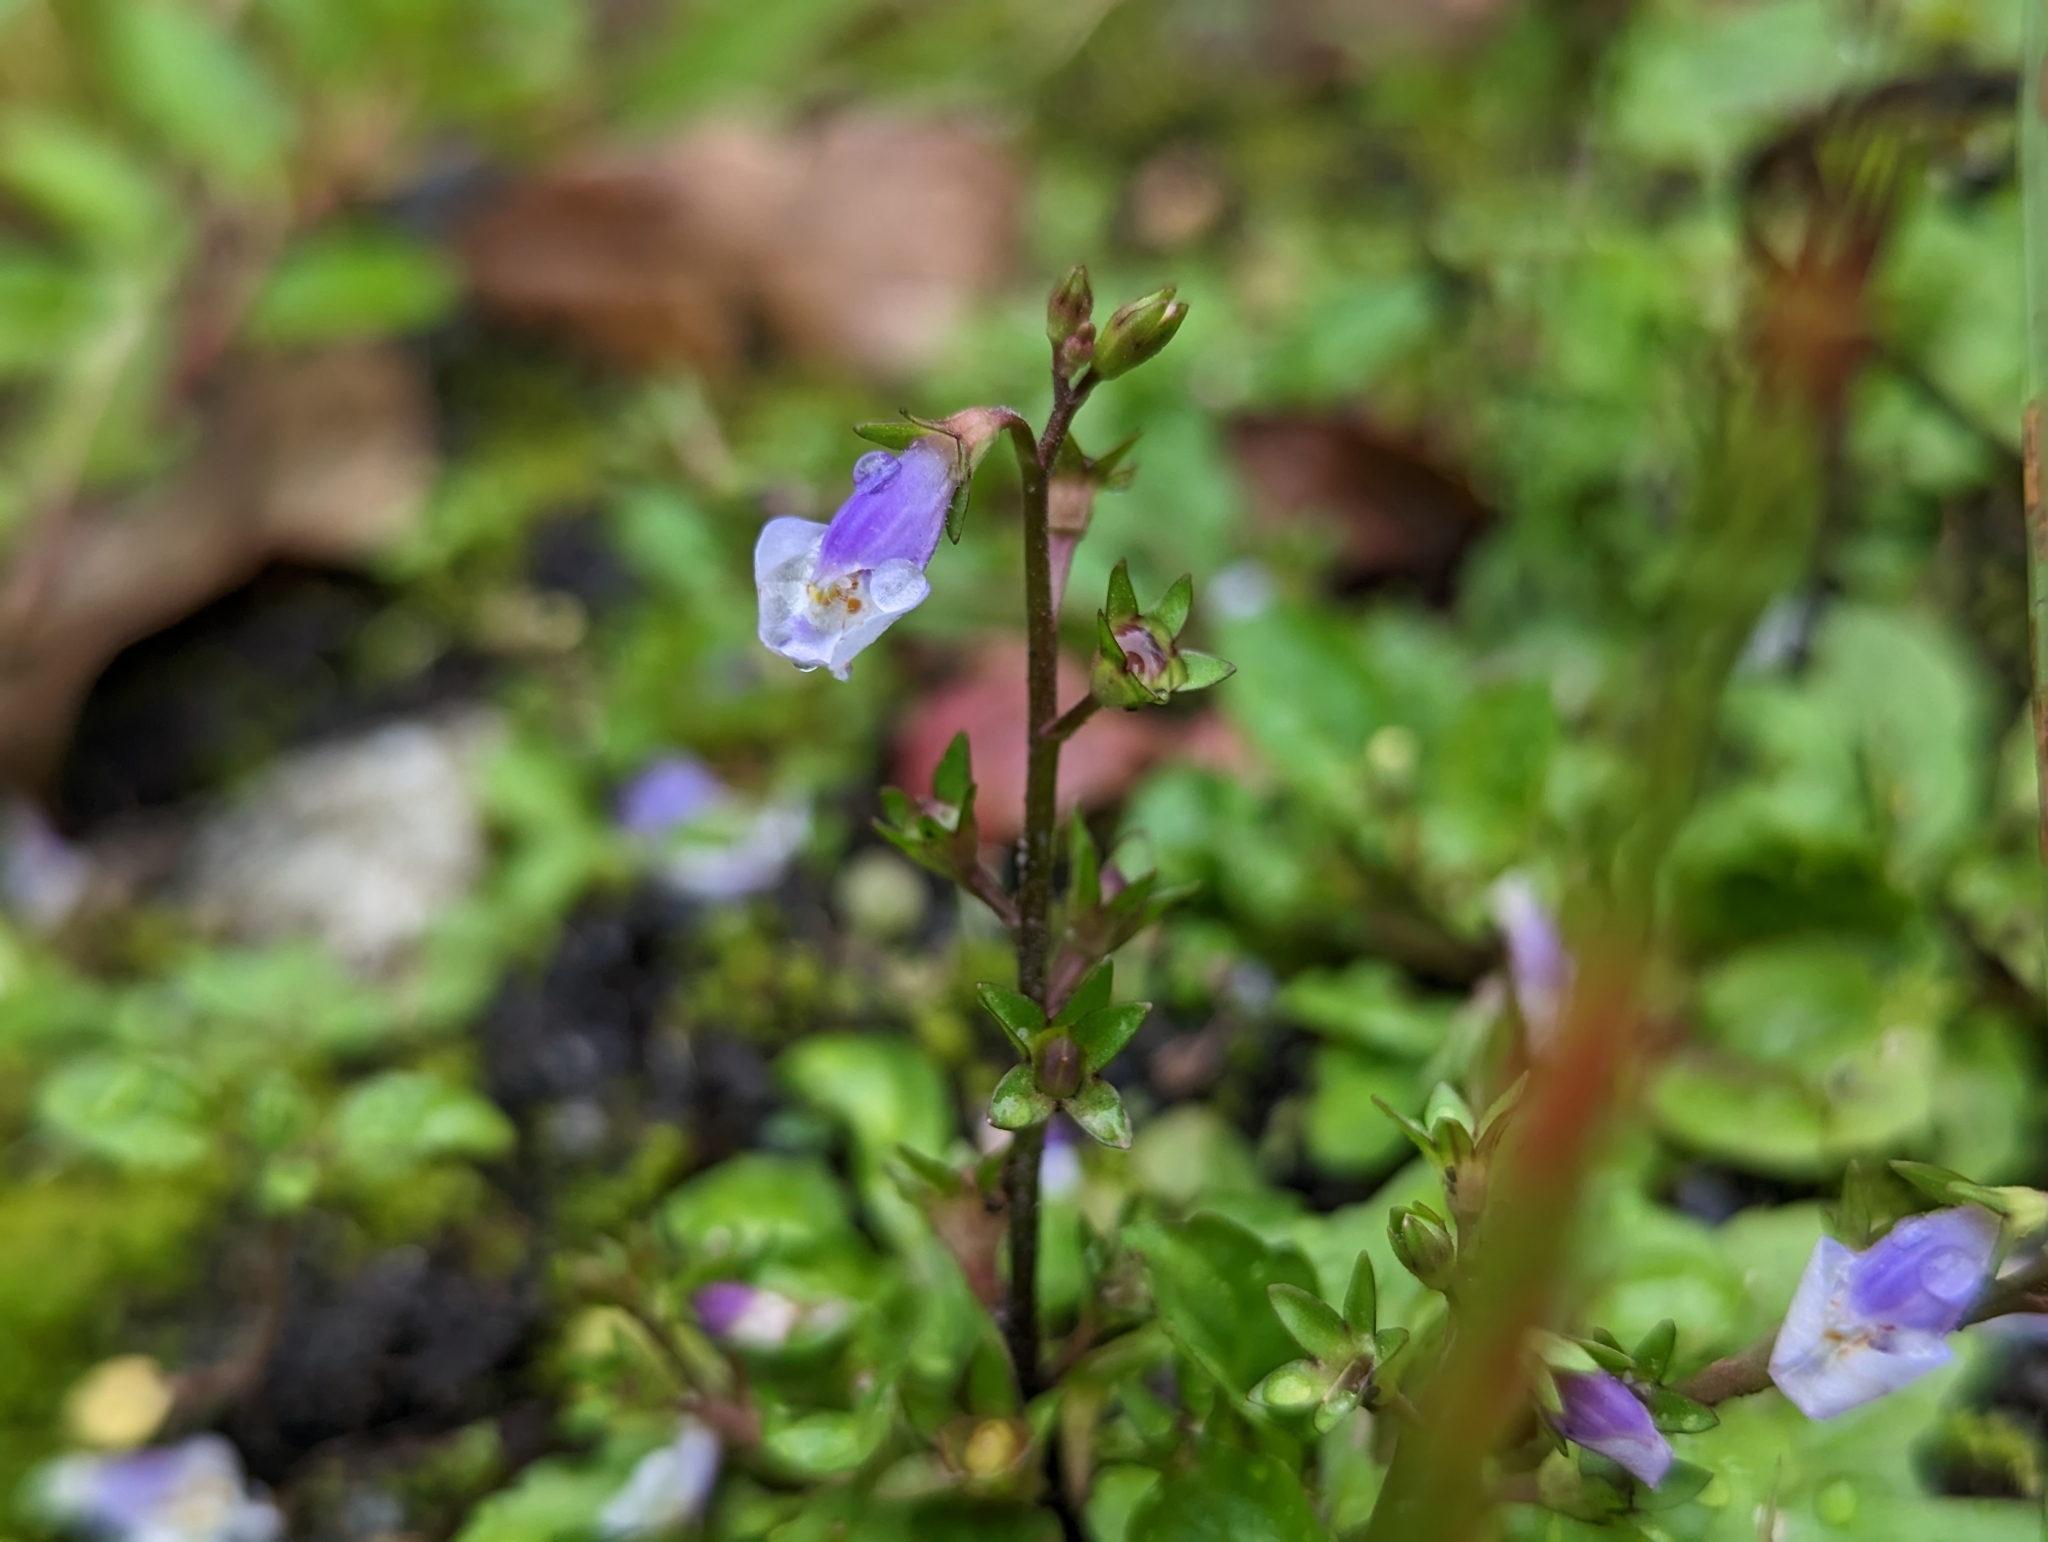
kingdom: Plantae
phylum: Tracheophyta
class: Magnoliopsida
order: Lamiales
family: Mazaceae
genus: Mazus
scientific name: Mazus pumilus
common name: Japanese mazus
